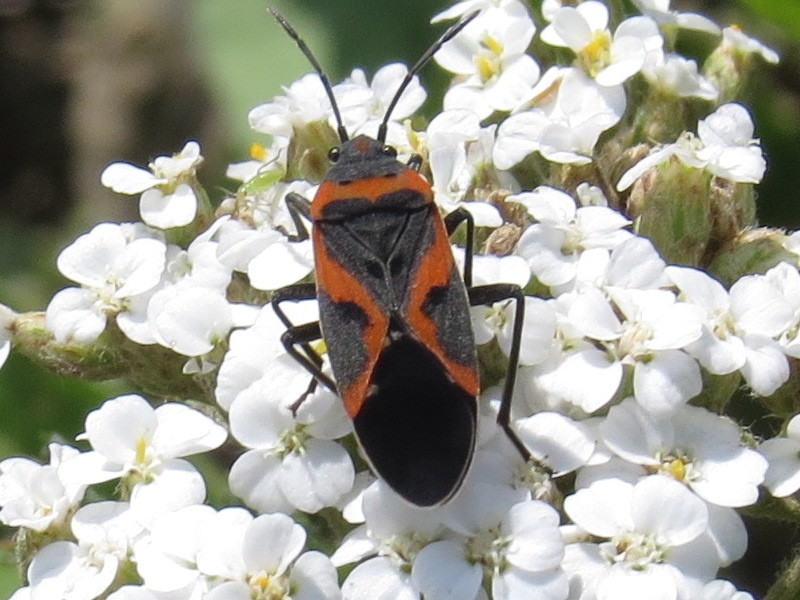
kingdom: Animalia
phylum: Arthropoda
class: Insecta
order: Hemiptera
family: Lygaeidae
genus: Lygaeus
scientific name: Lygaeus kalmii
